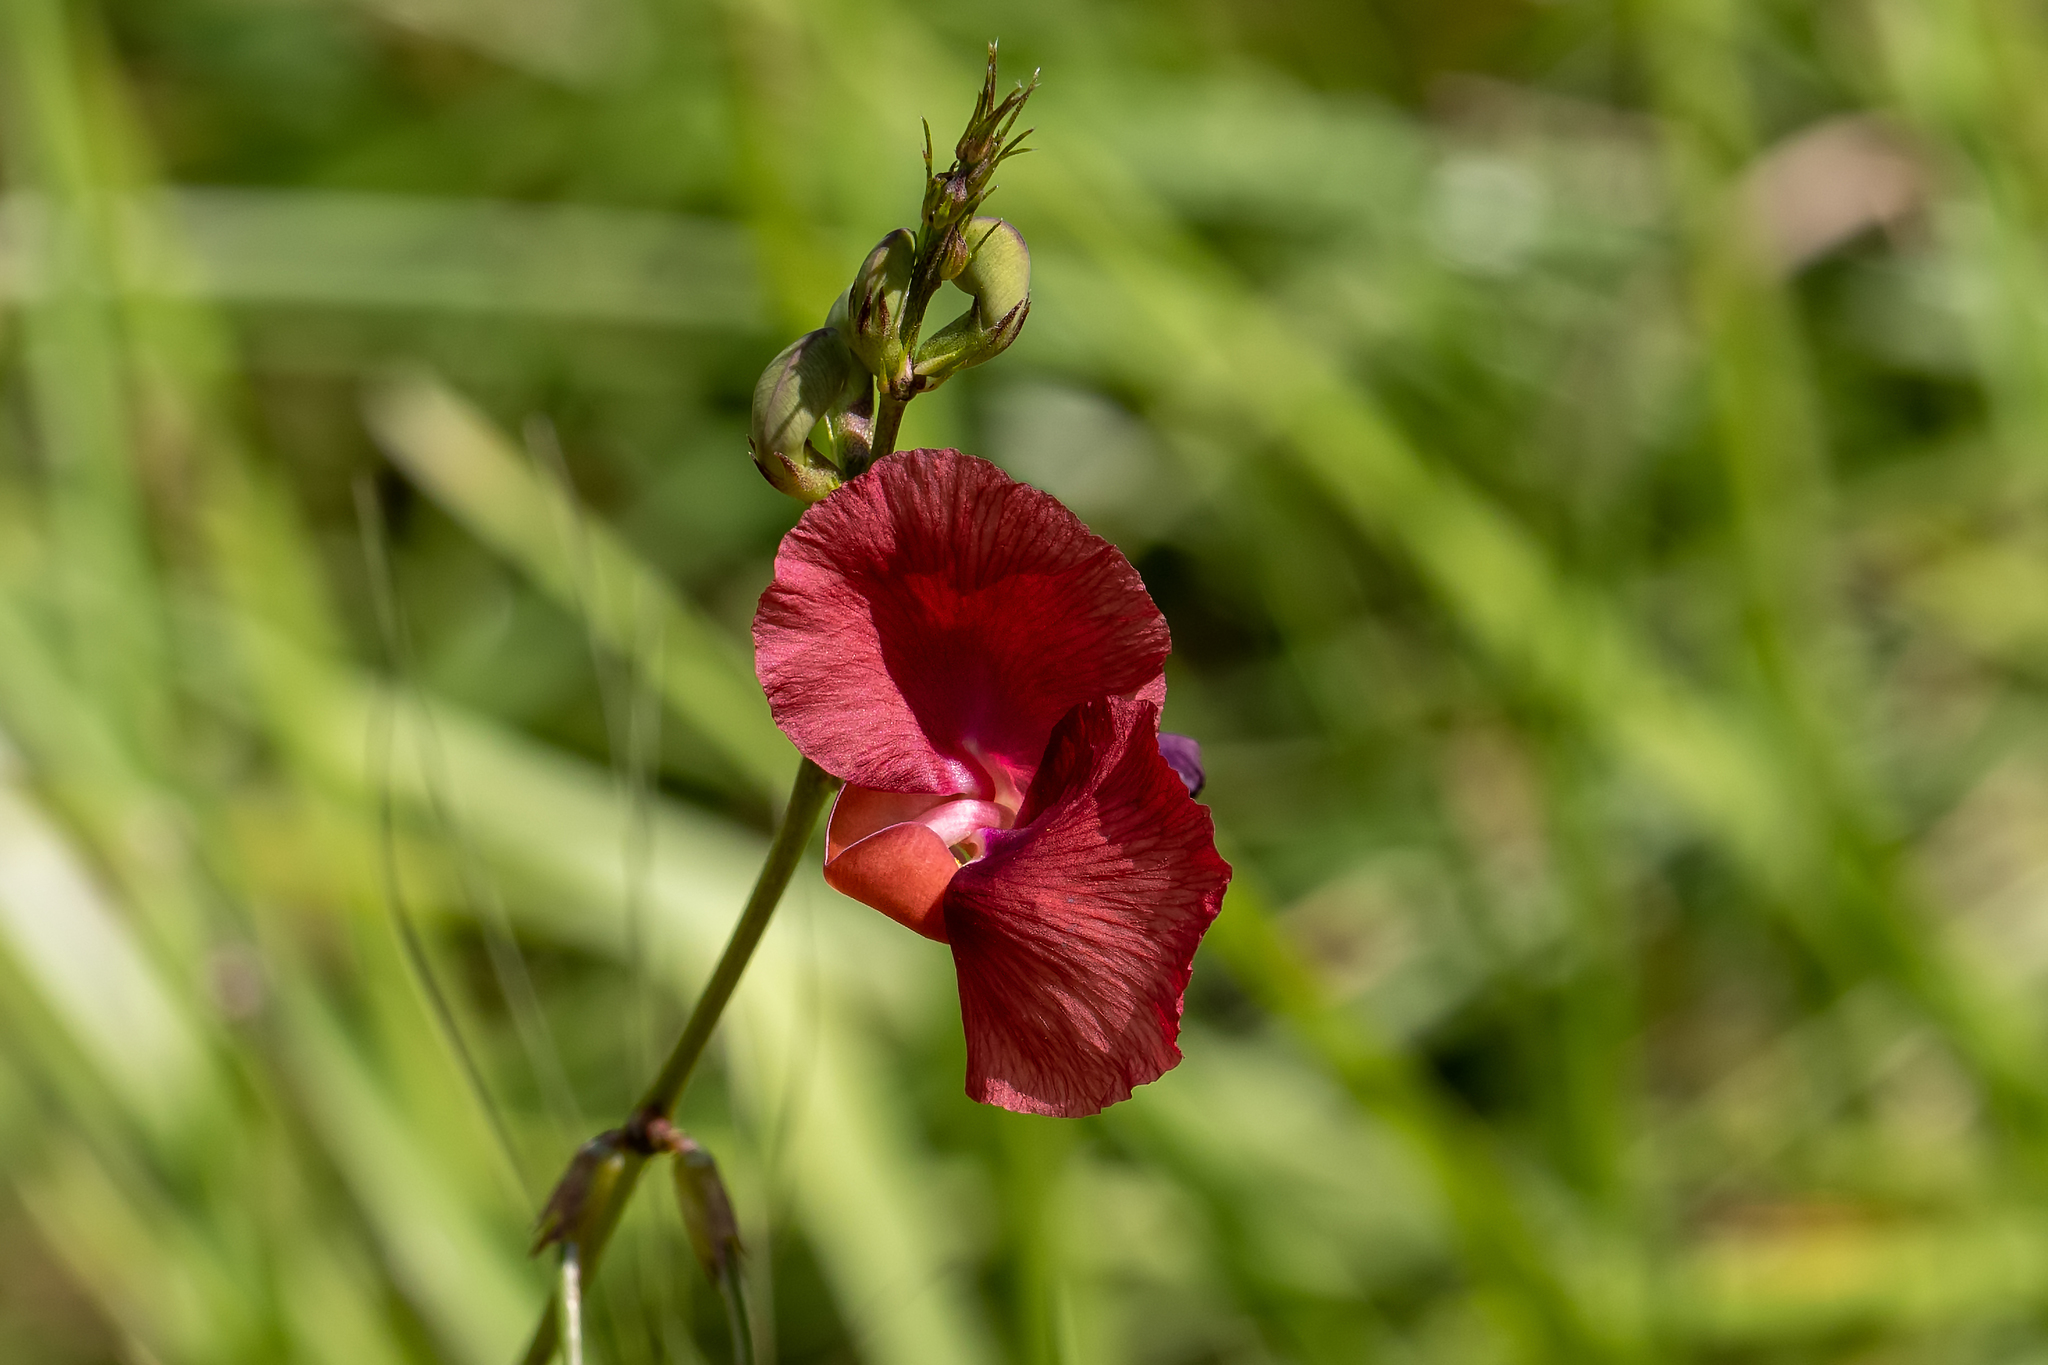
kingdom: Plantae
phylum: Tracheophyta
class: Magnoliopsida
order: Fabales
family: Fabaceae
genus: Macroptilium
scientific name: Macroptilium lathyroides
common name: Wild bushbean
